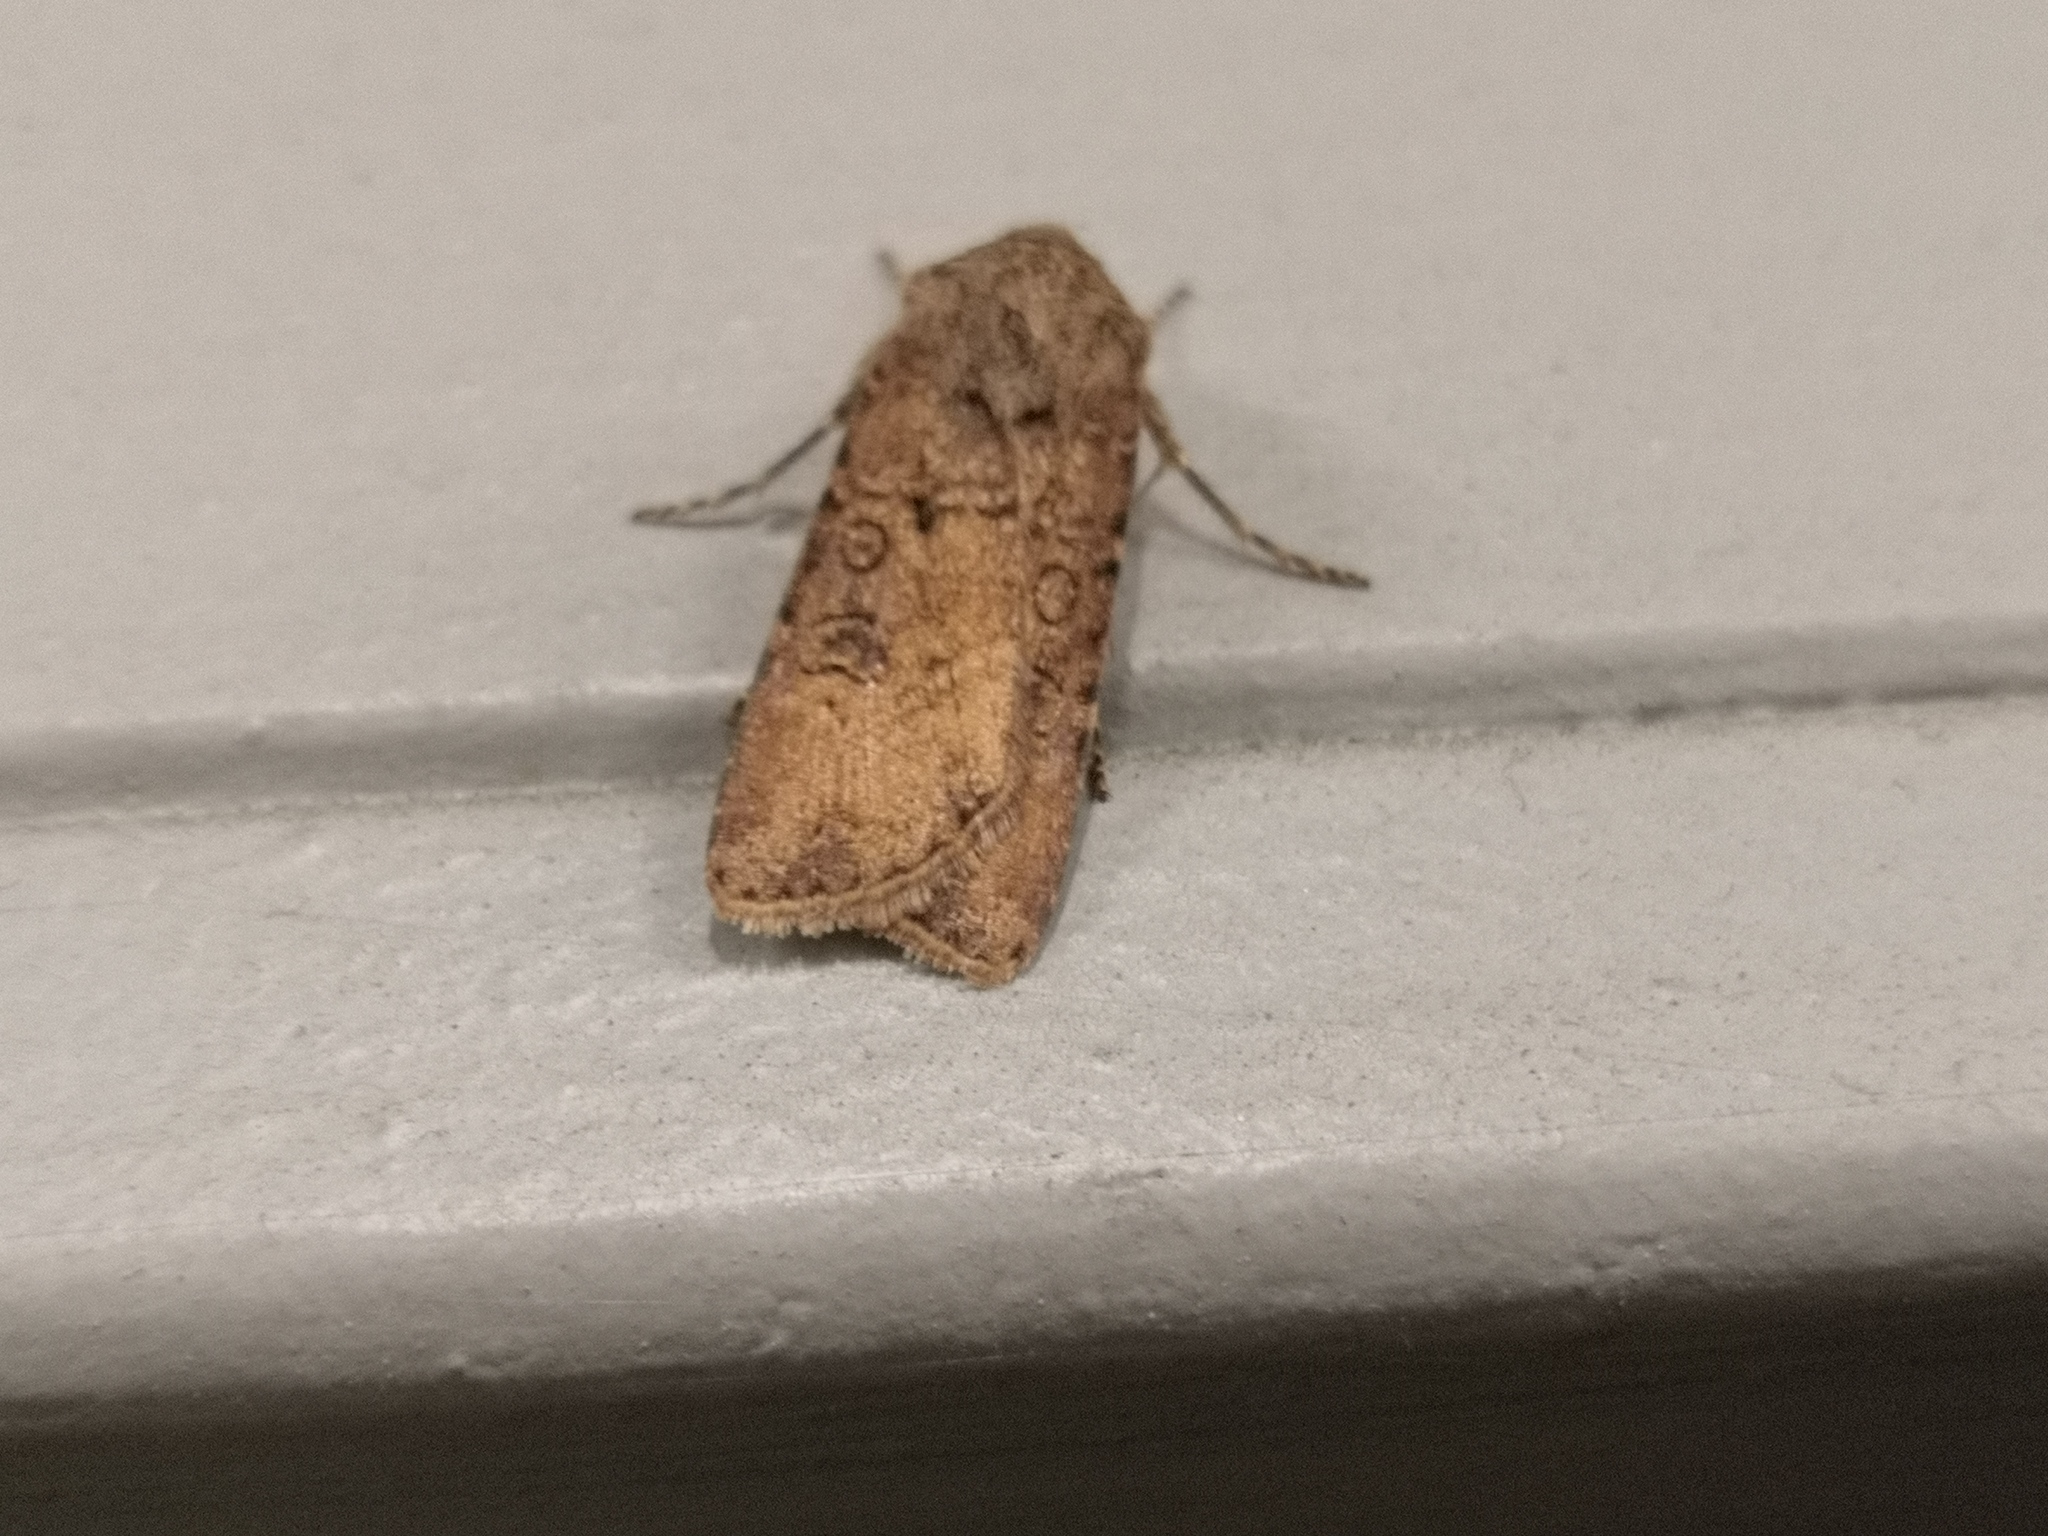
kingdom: Animalia
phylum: Arthropoda
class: Insecta
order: Lepidoptera
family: Noctuidae
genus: Agrotis
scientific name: Agrotis segetum
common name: Turnip moth
